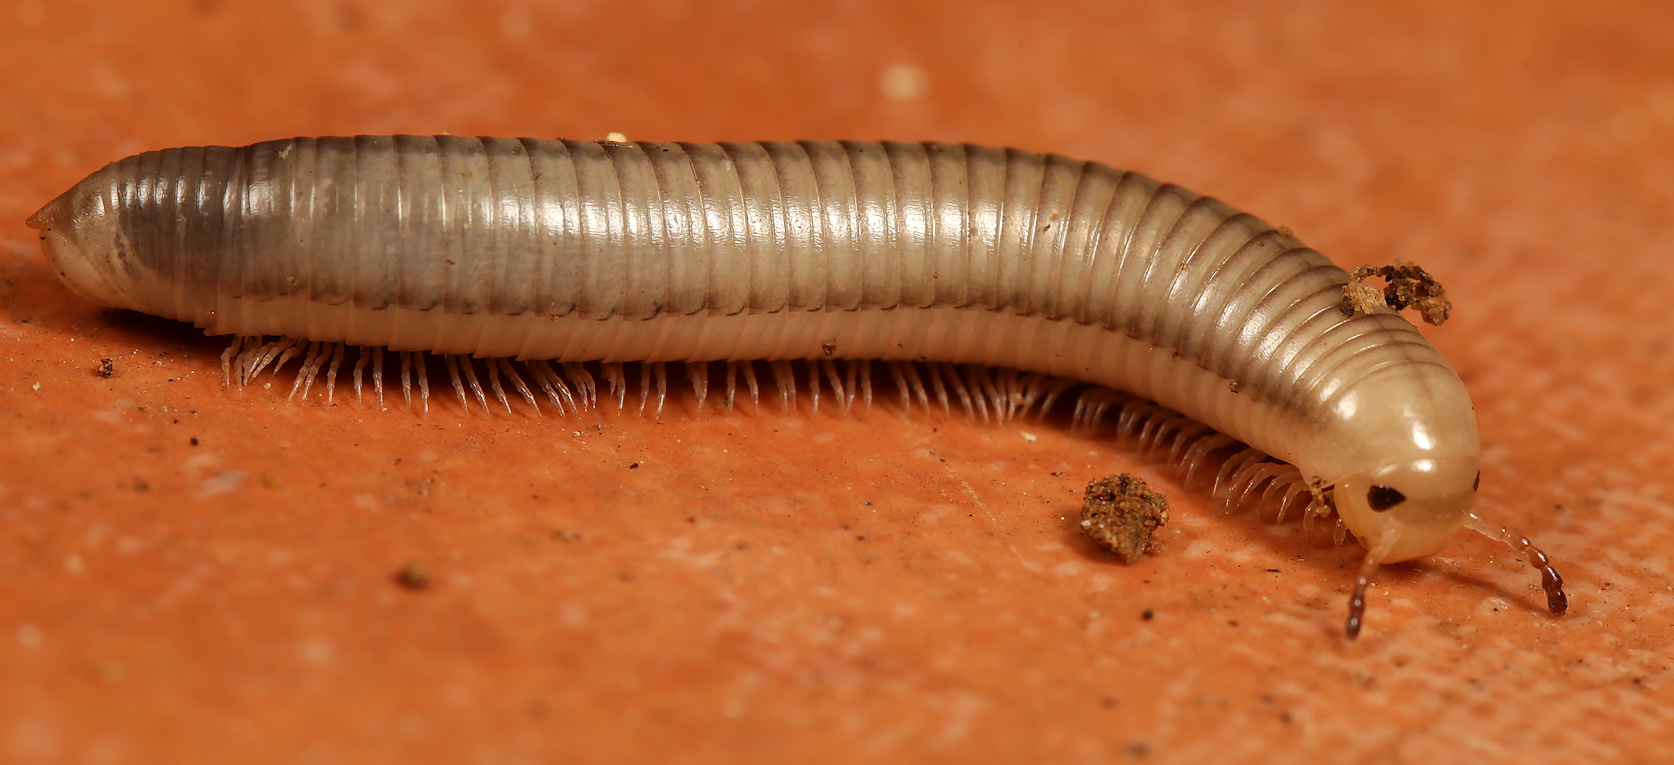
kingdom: Animalia
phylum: Arthropoda
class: Diplopoda
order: Spirostreptida
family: Harpagophoridae
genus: Zinophora
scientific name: Zinophora similis
